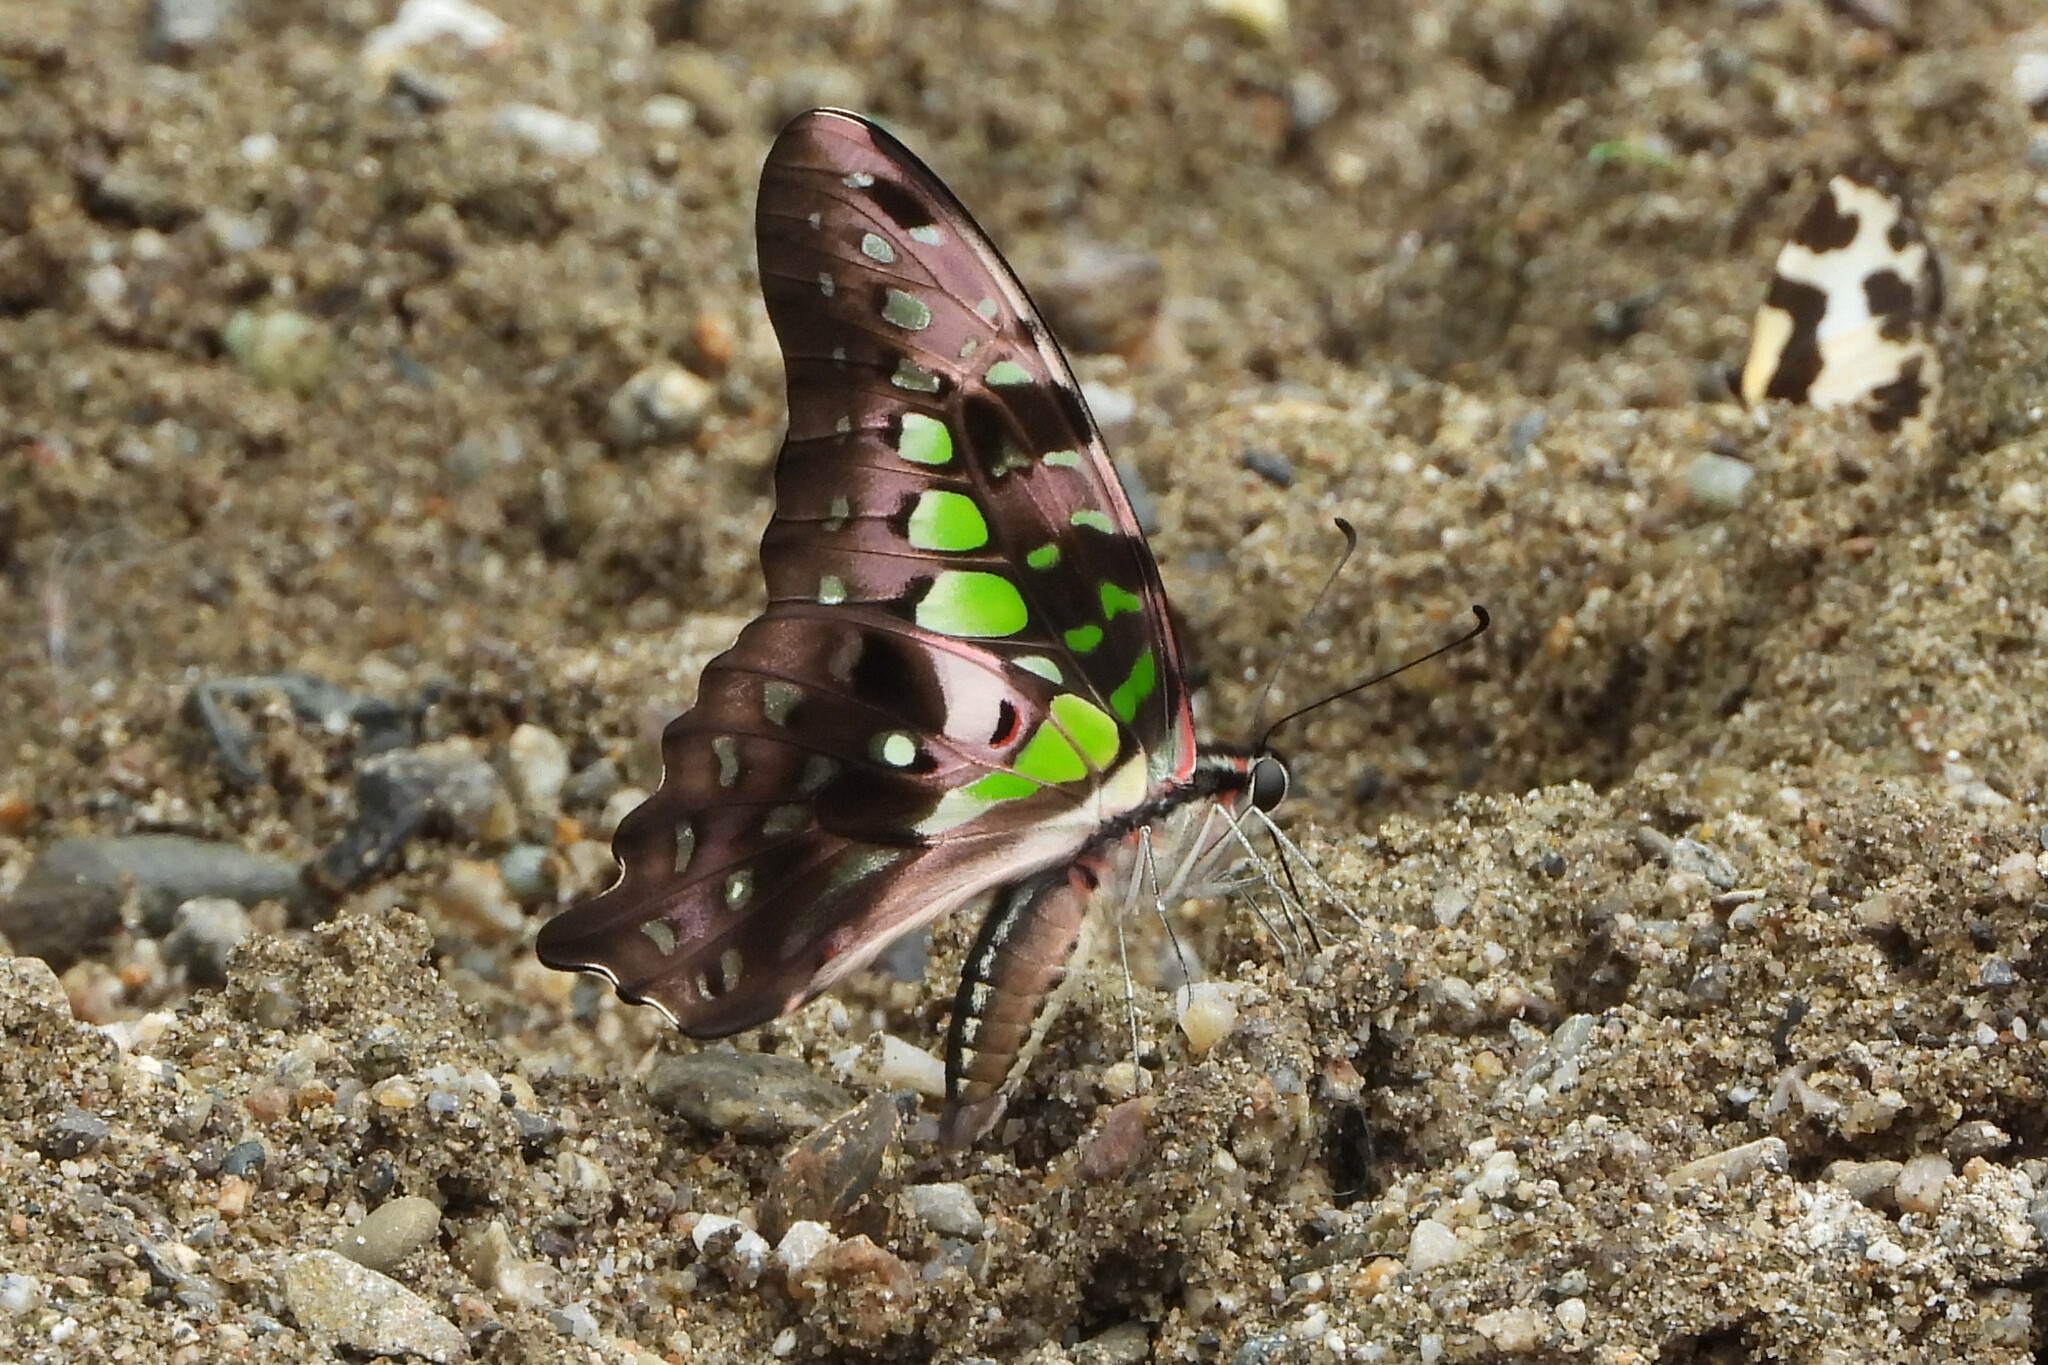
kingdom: Animalia
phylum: Arthropoda
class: Insecta
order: Lepidoptera
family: Papilionidae
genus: Graphium
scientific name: Graphium agamemnon
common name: Tailed jay
